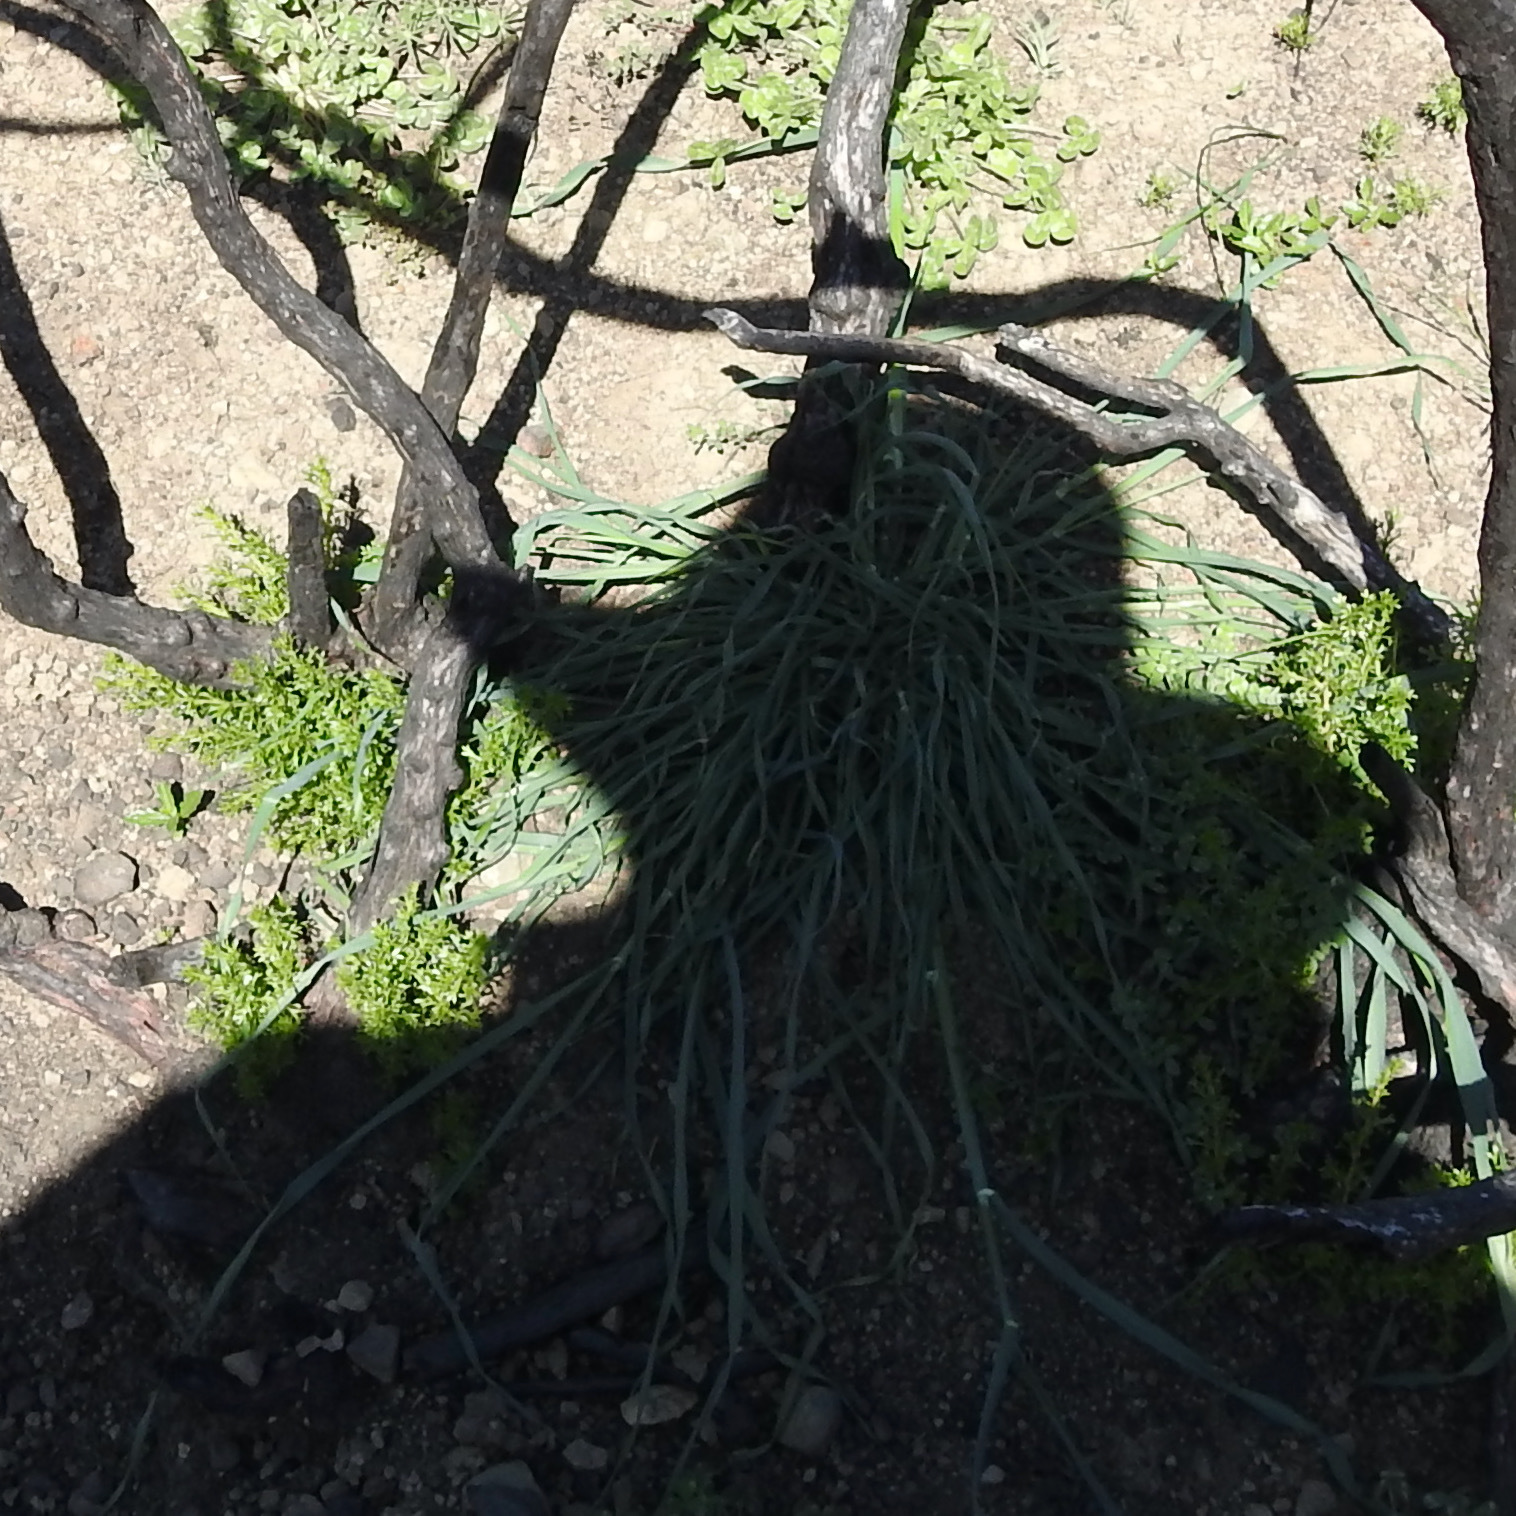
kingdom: Plantae
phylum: Tracheophyta
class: Magnoliopsida
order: Rosales
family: Rosaceae
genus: Adenostoma
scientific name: Adenostoma fasciculatum
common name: Chamise
